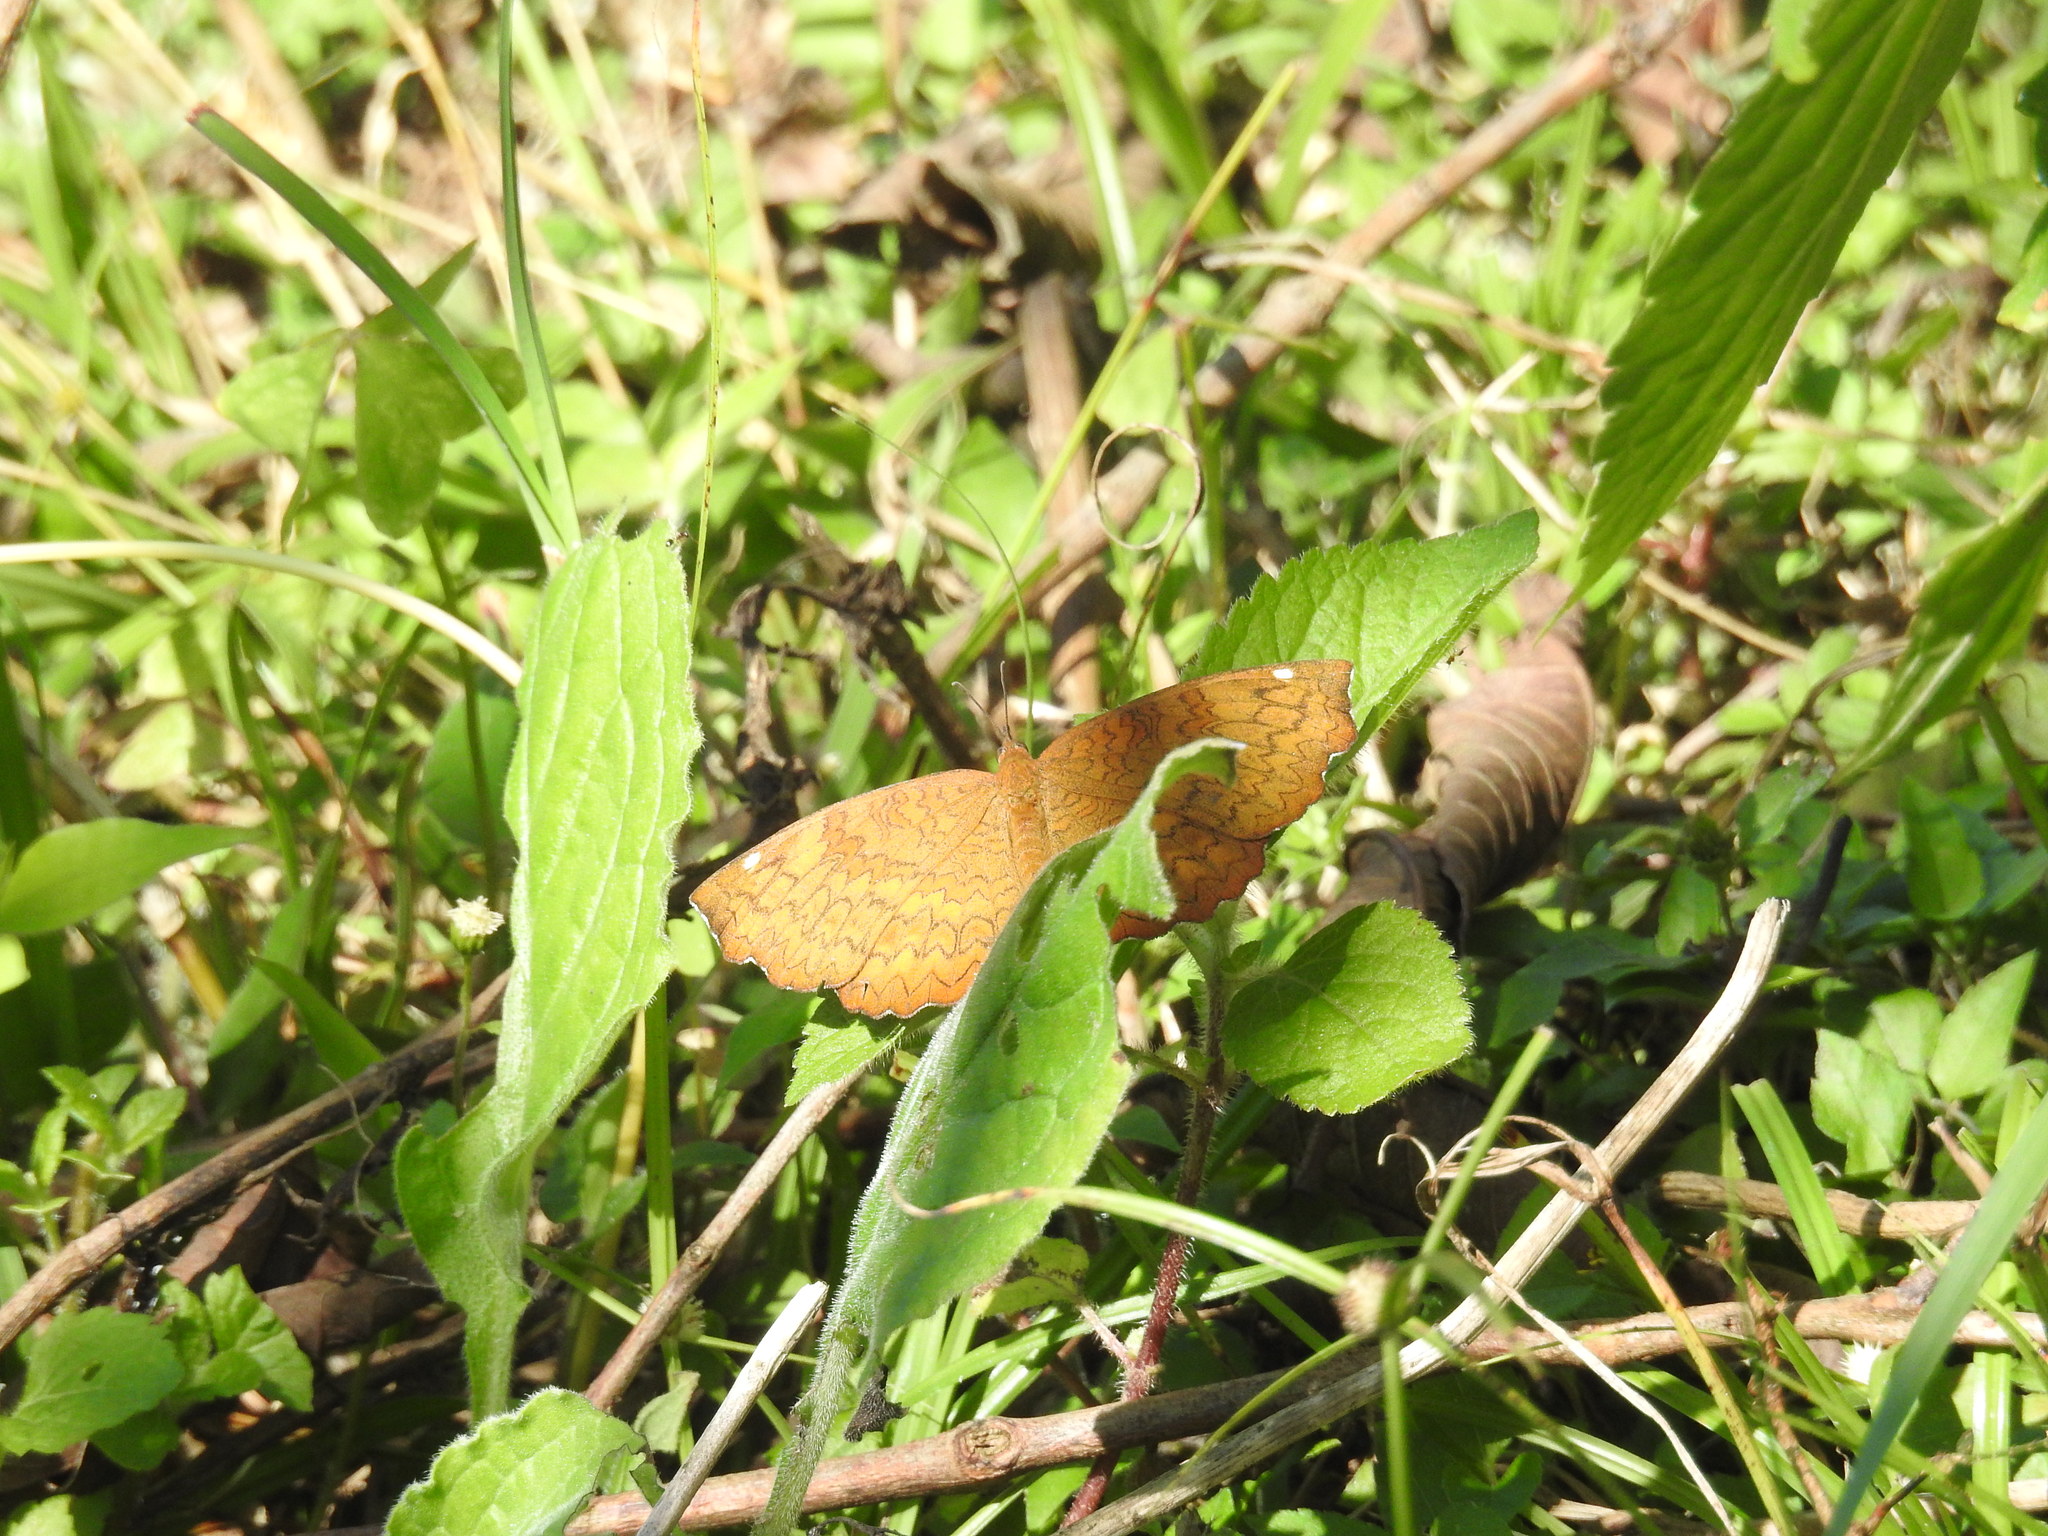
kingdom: Animalia
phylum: Arthropoda
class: Insecta
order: Lepidoptera
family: Nymphalidae
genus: Ariadne
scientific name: Ariadne merione
